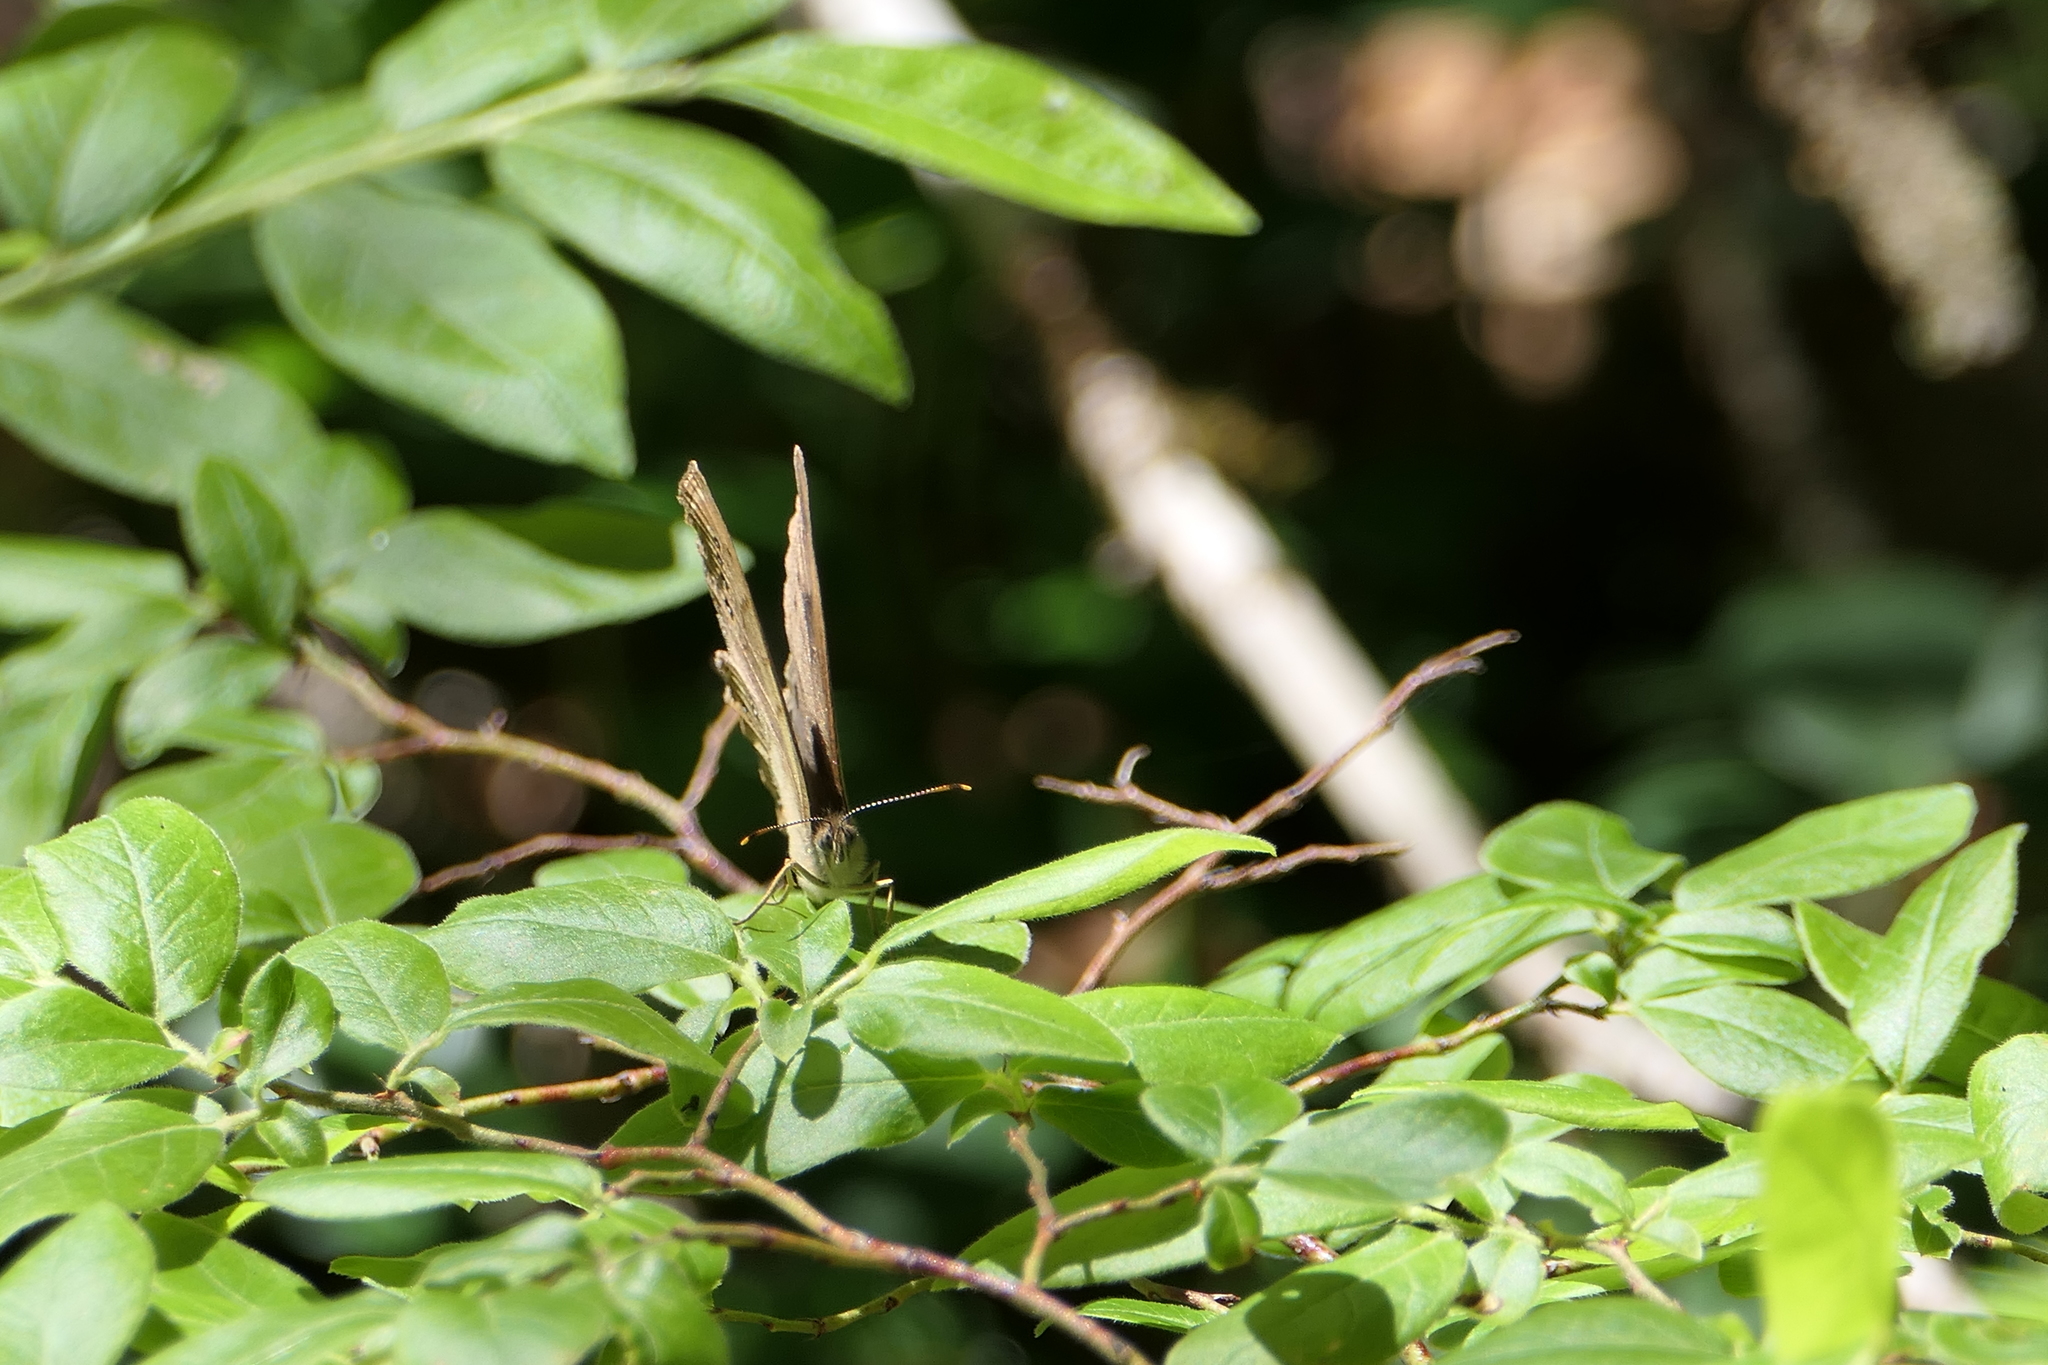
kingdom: Animalia
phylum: Arthropoda
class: Insecta
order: Lepidoptera
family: Nymphalidae
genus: Lethe
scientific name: Lethe eurydice
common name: Eyed brown
